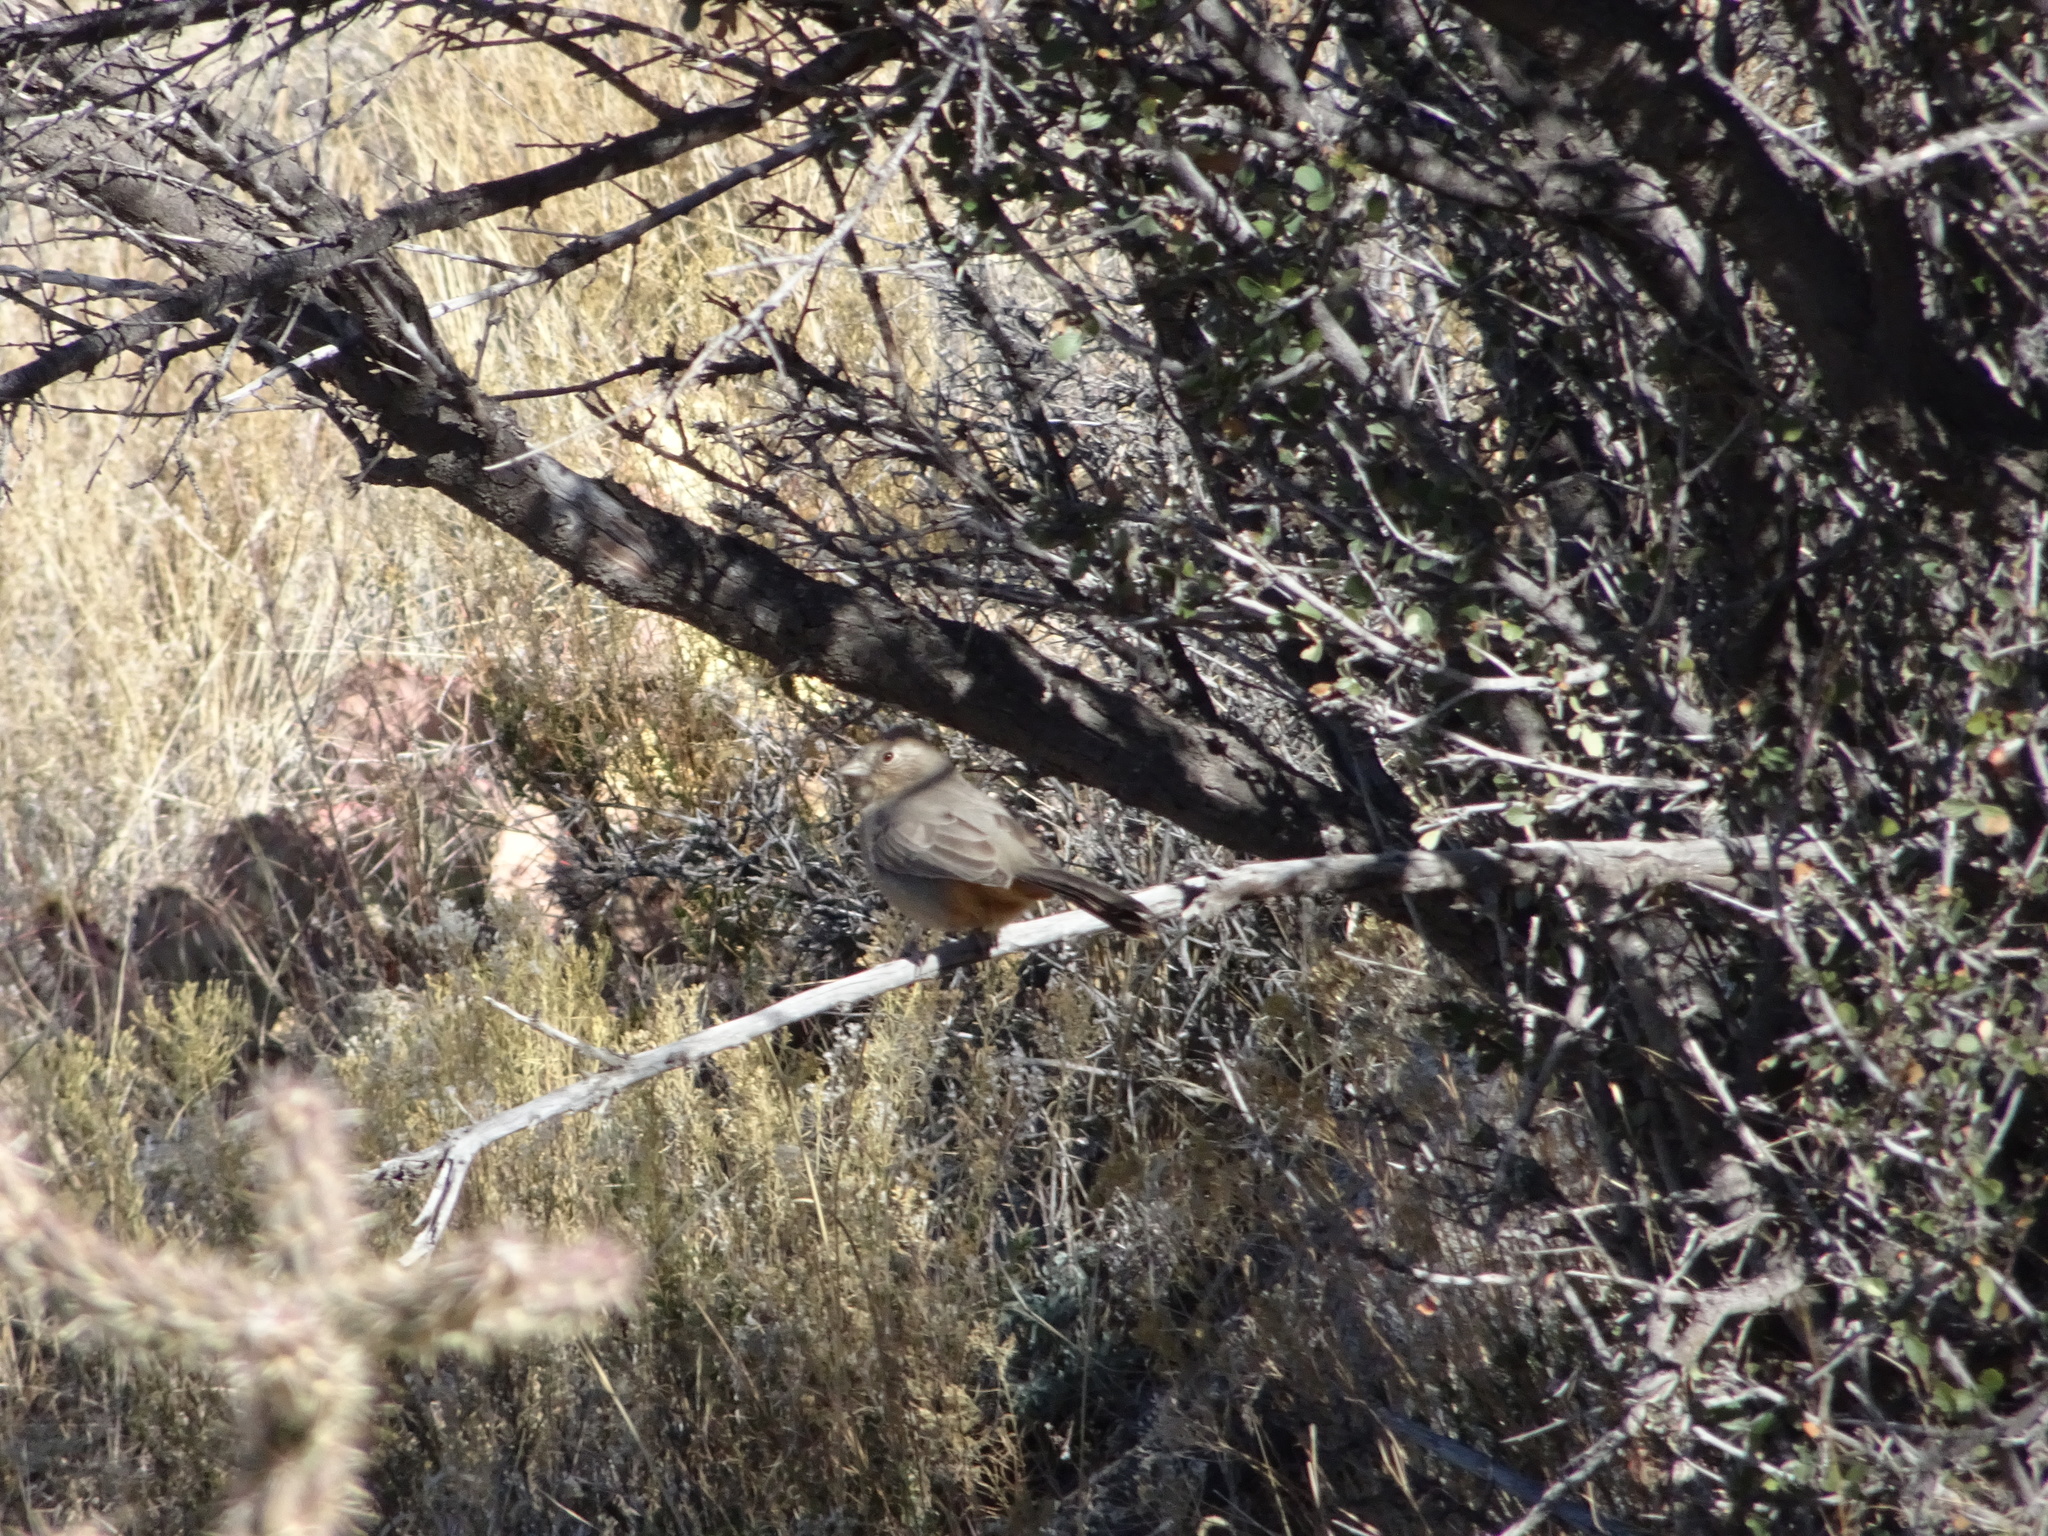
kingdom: Animalia
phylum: Chordata
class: Aves
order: Passeriformes
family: Passerellidae
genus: Melozone
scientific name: Melozone fusca
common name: Canyon towhee
